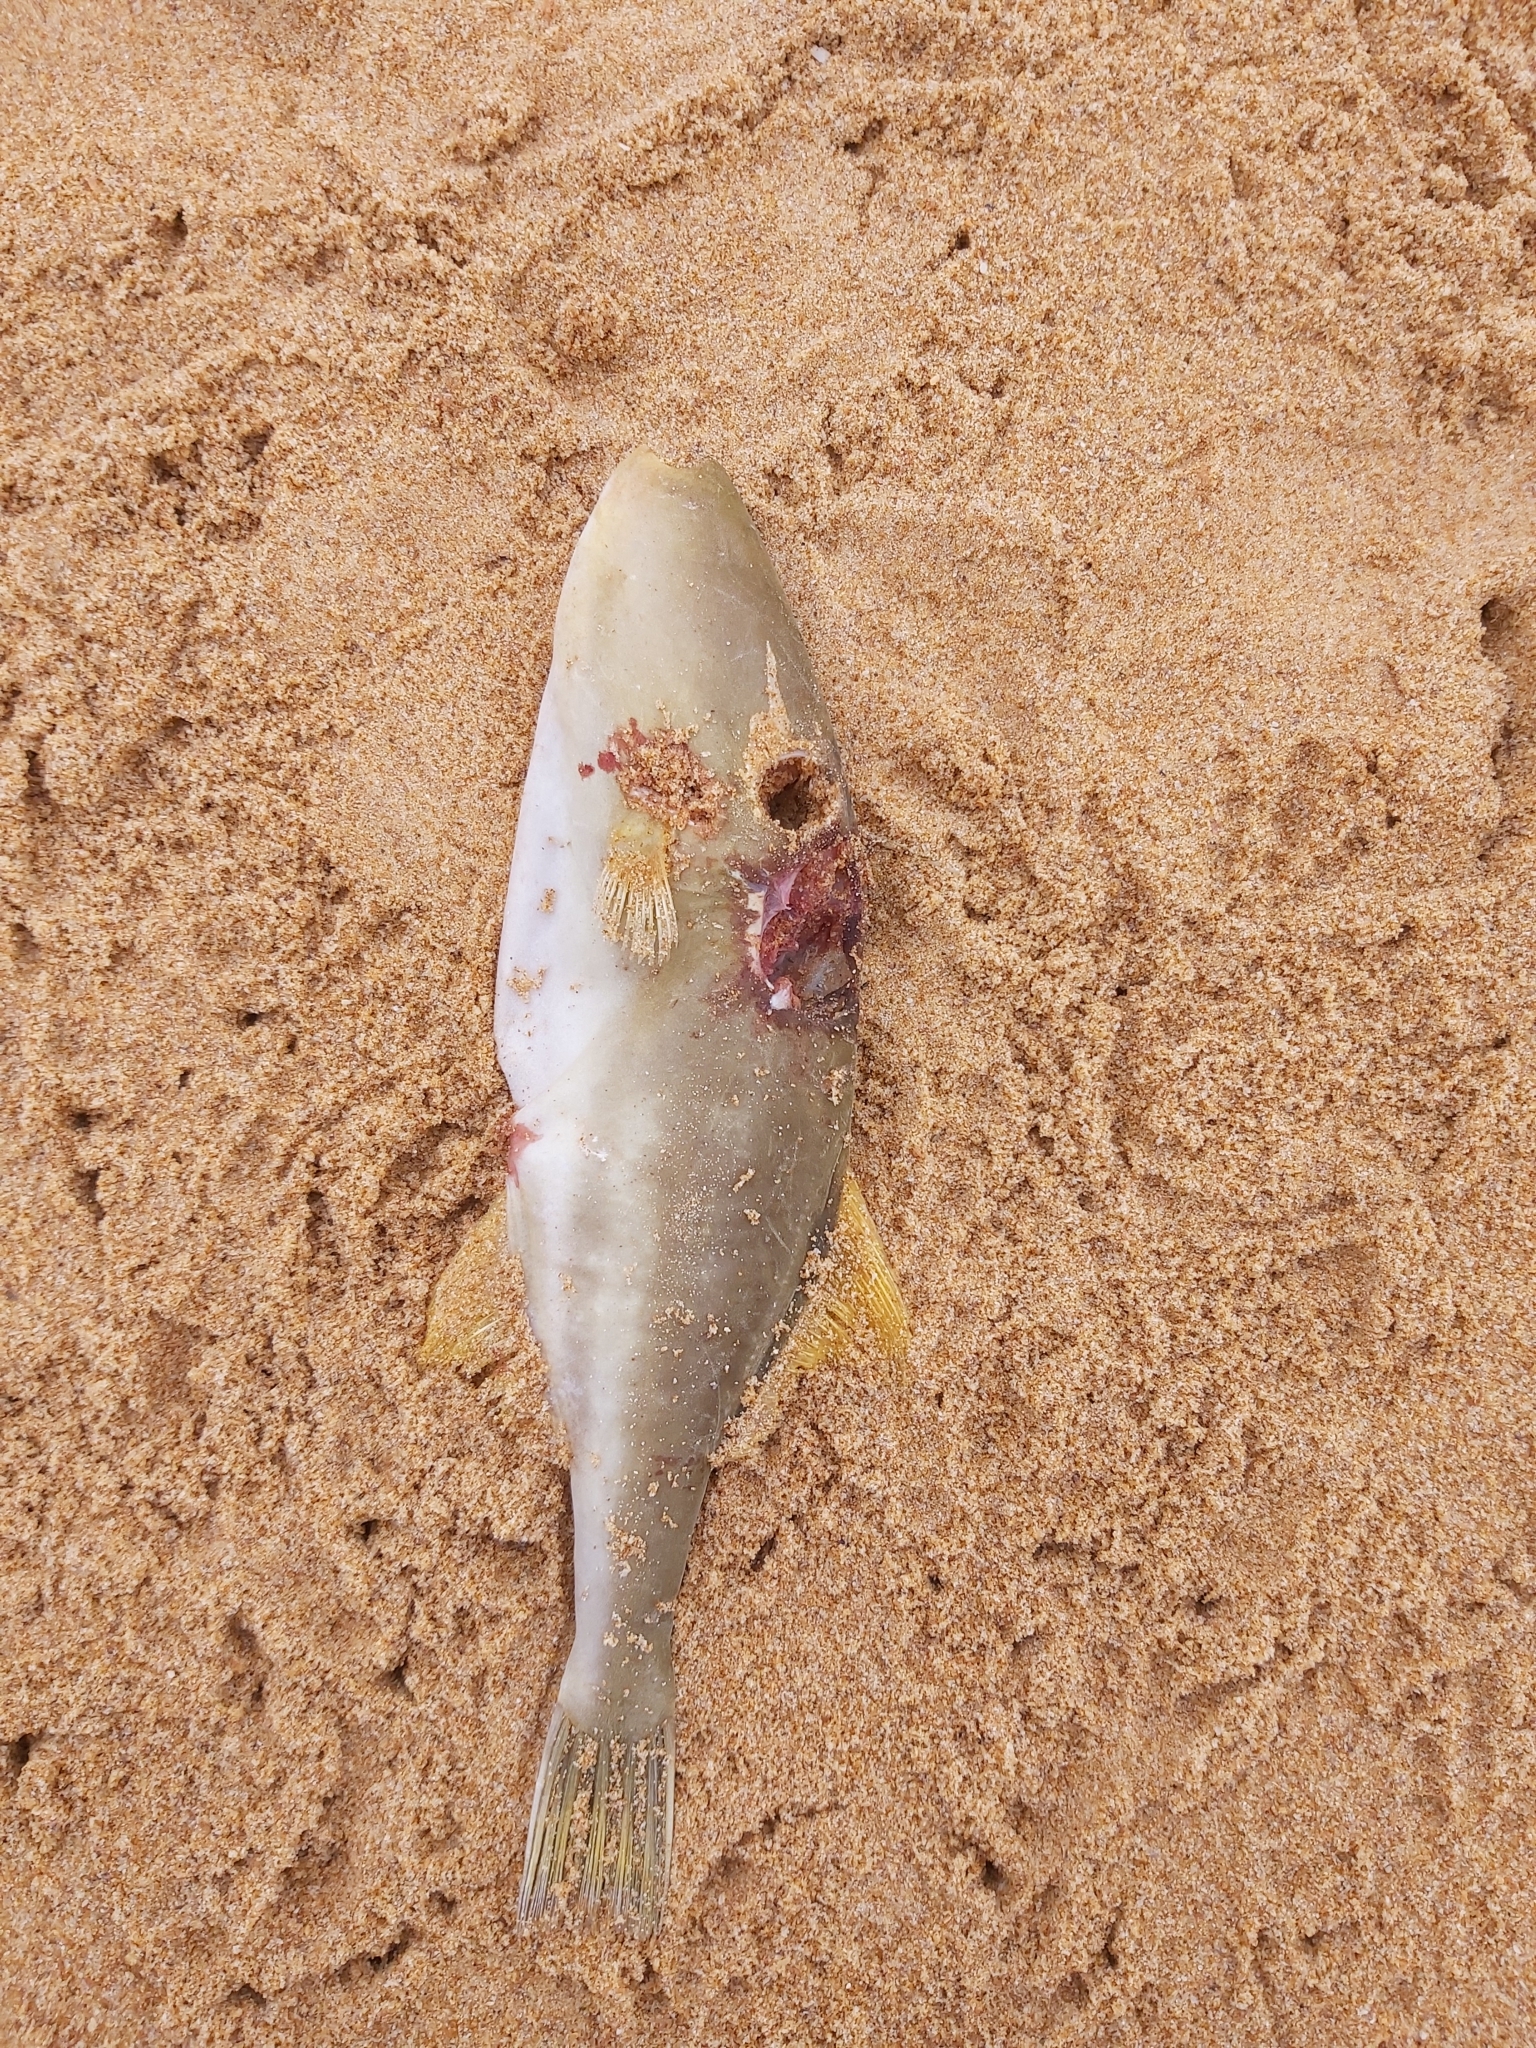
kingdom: Animalia
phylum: Chordata
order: Tetraodontiformes
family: Monacanthidae
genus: Nelusetta
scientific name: Nelusetta ayraud
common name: Chinaman leatherjacket
